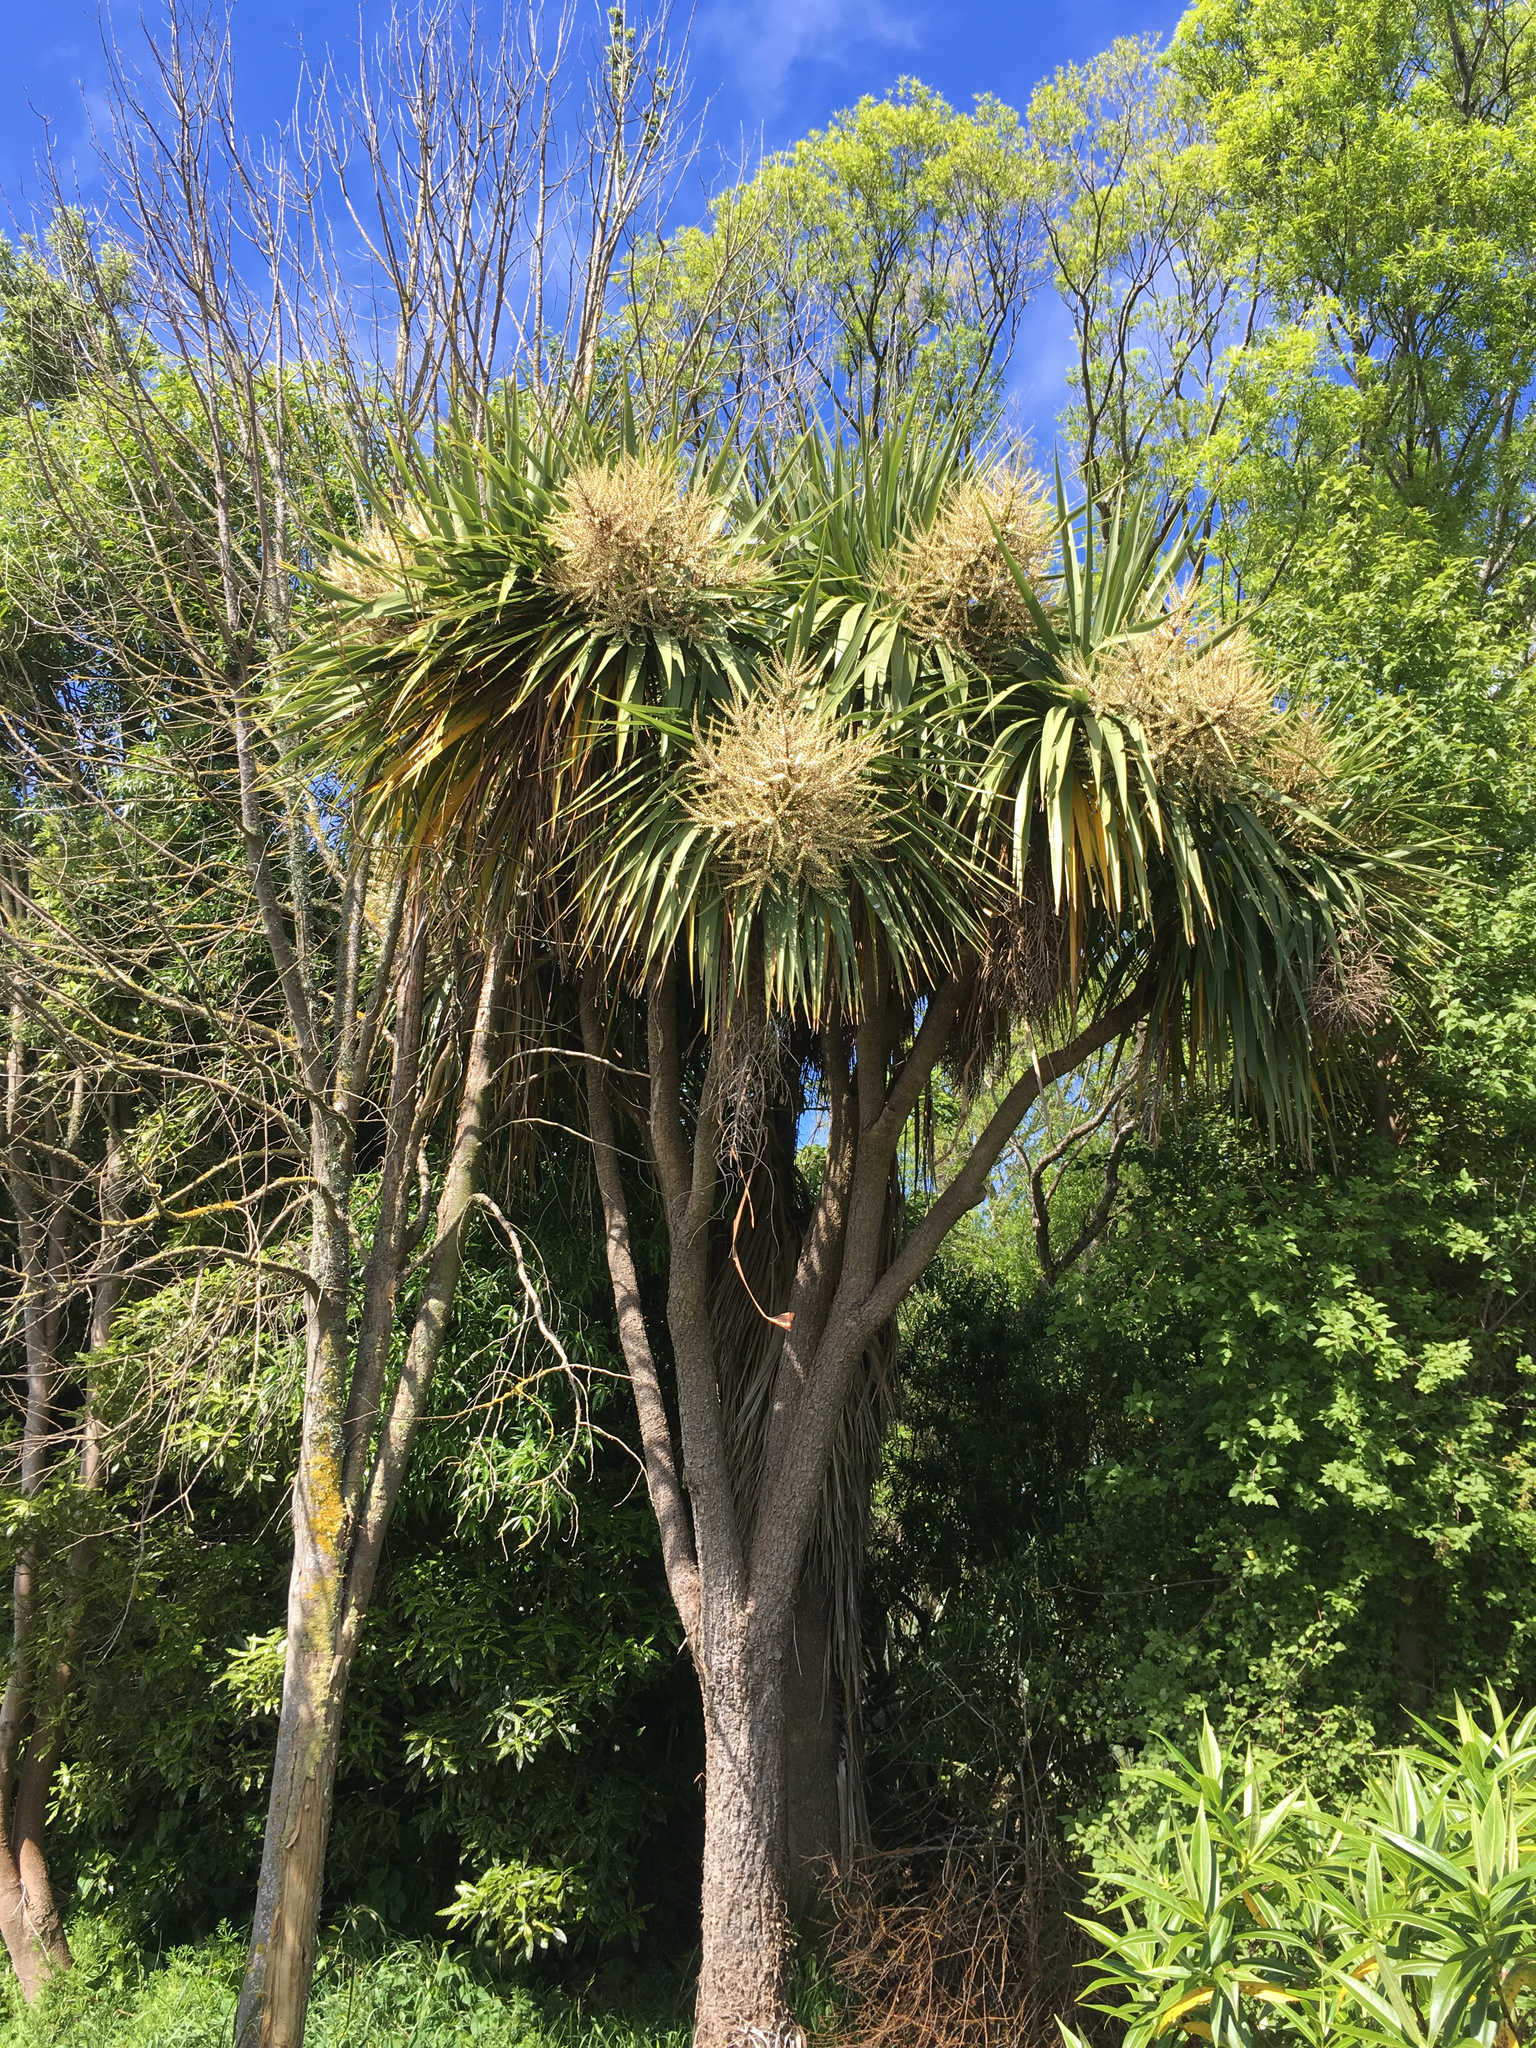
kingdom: Plantae
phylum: Tracheophyta
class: Liliopsida
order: Asparagales
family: Asparagaceae
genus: Cordyline
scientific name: Cordyline australis
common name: Cabbage-palm
